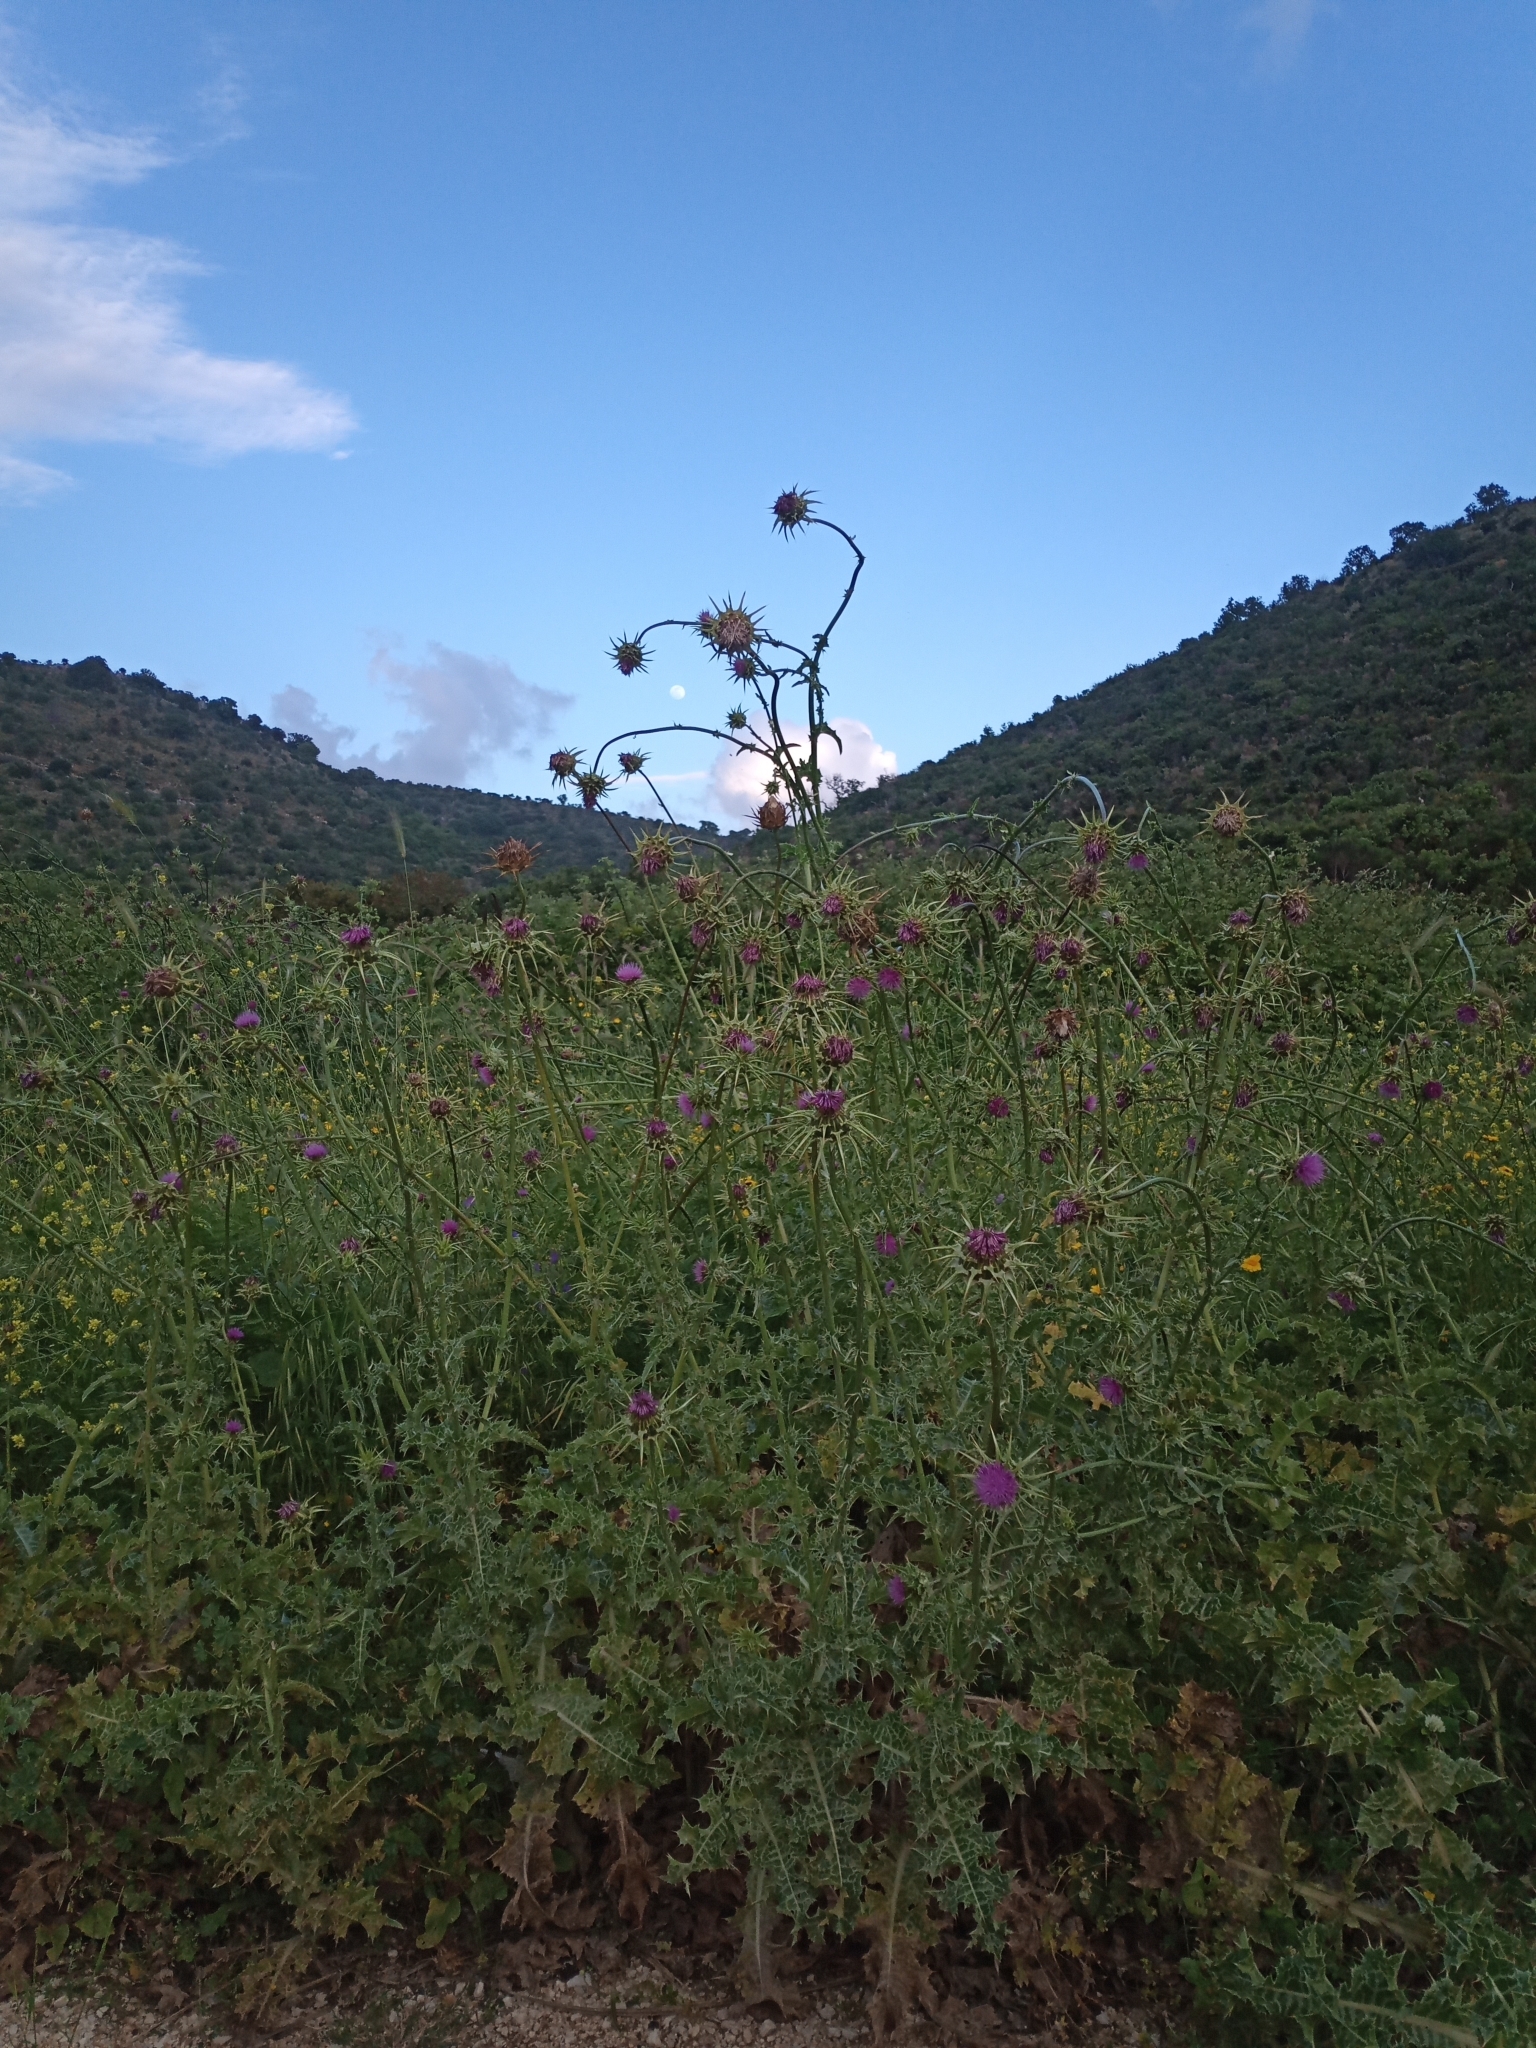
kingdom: Plantae
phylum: Tracheophyta
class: Magnoliopsida
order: Asterales
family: Asteraceae
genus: Silybum
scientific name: Silybum marianum
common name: Milk thistle
